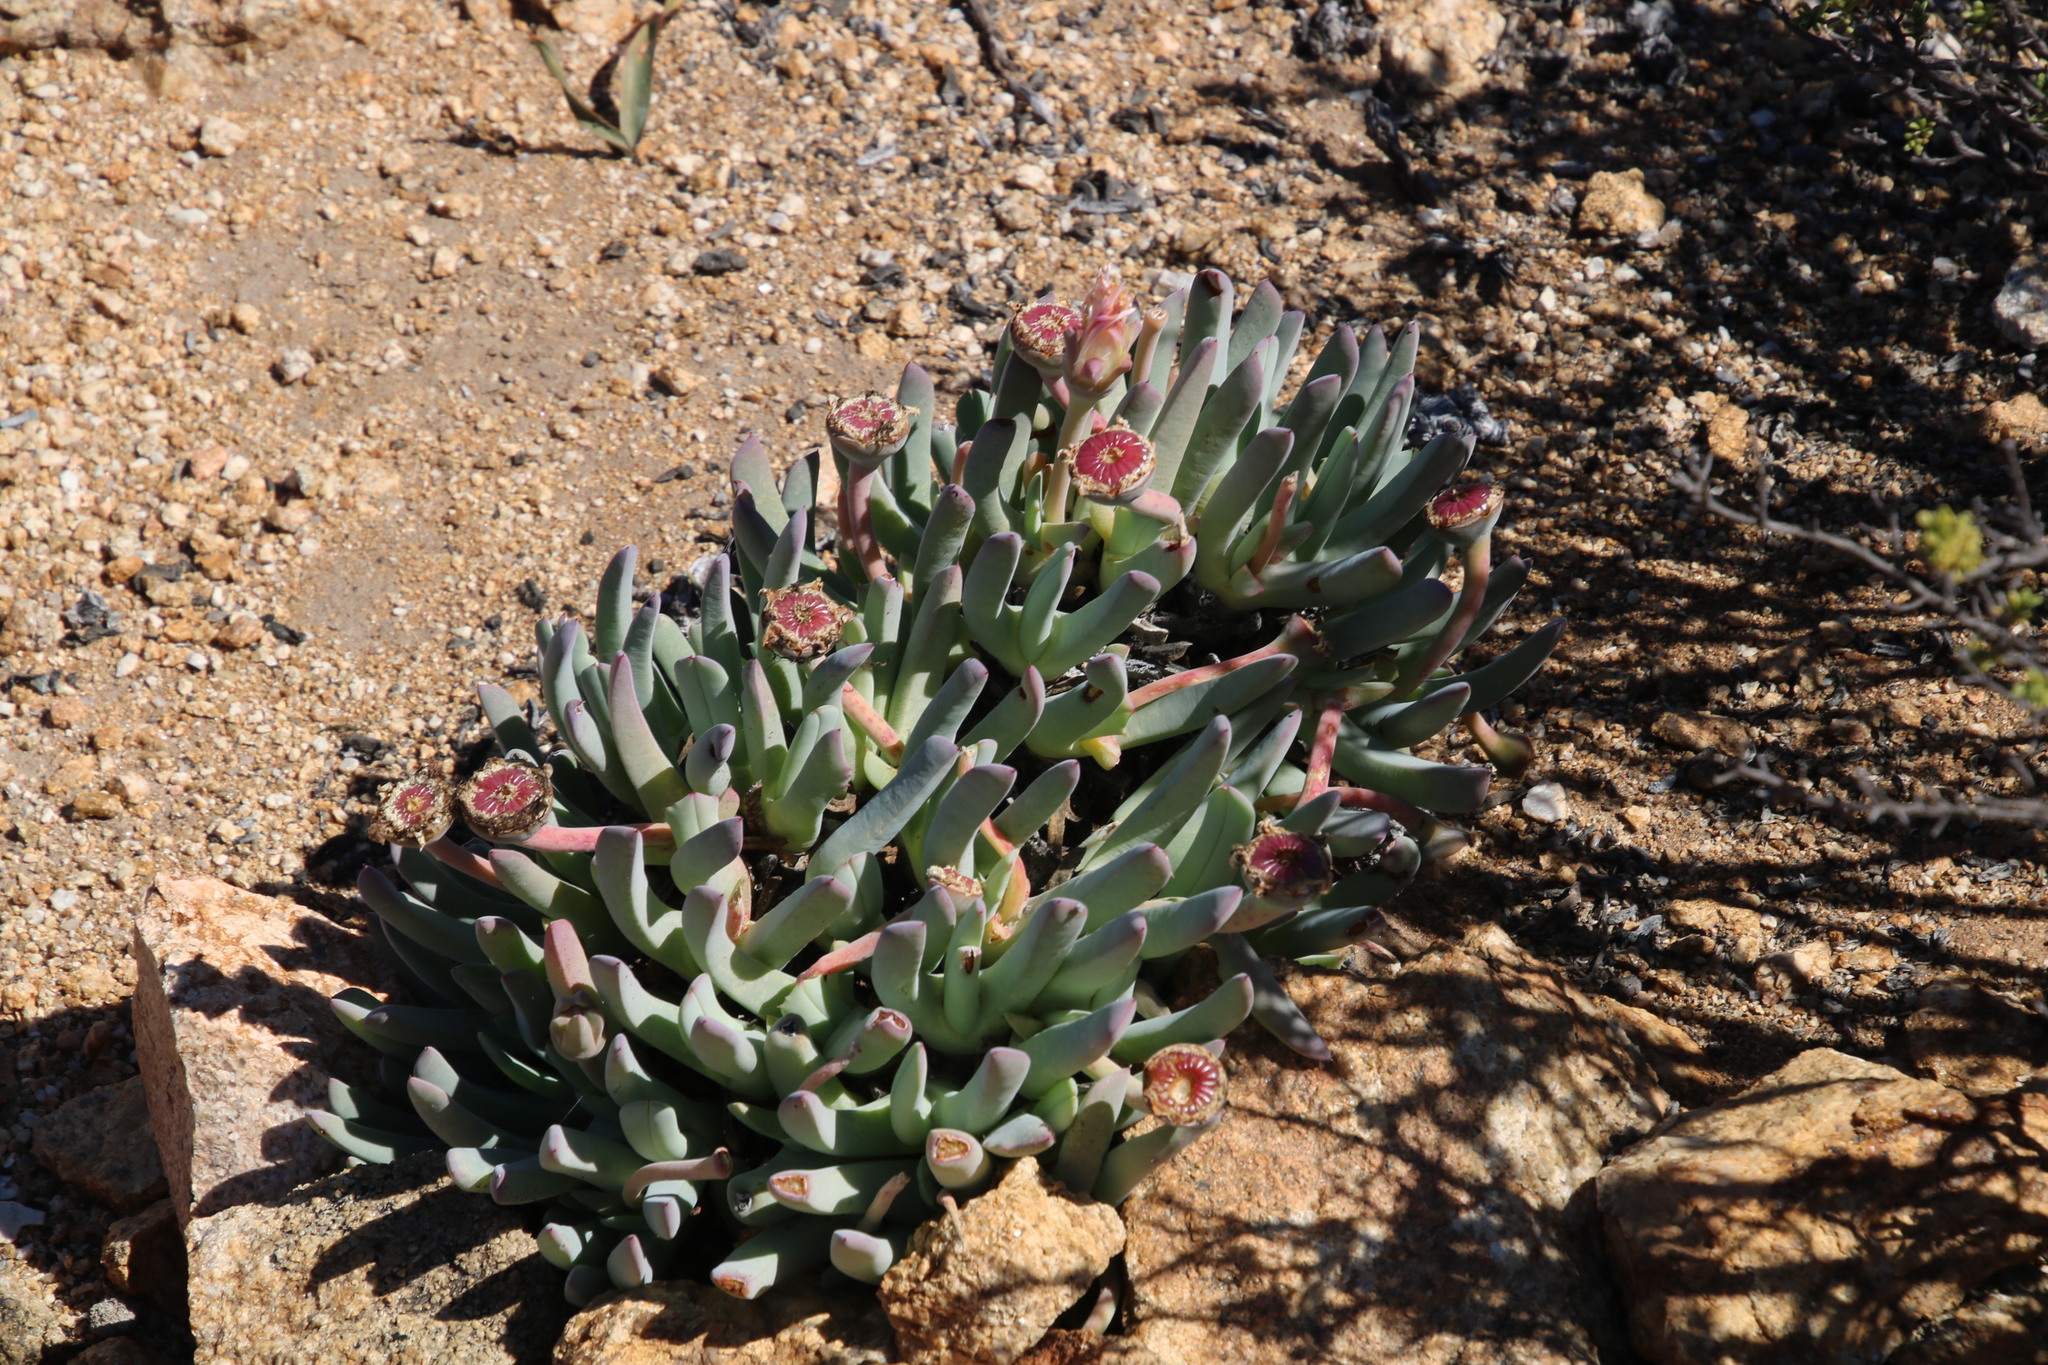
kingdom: Plantae
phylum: Tracheophyta
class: Magnoliopsida
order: Caryophyllales
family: Aizoaceae
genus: Cheiridopsis
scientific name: Cheiridopsis denticulata
